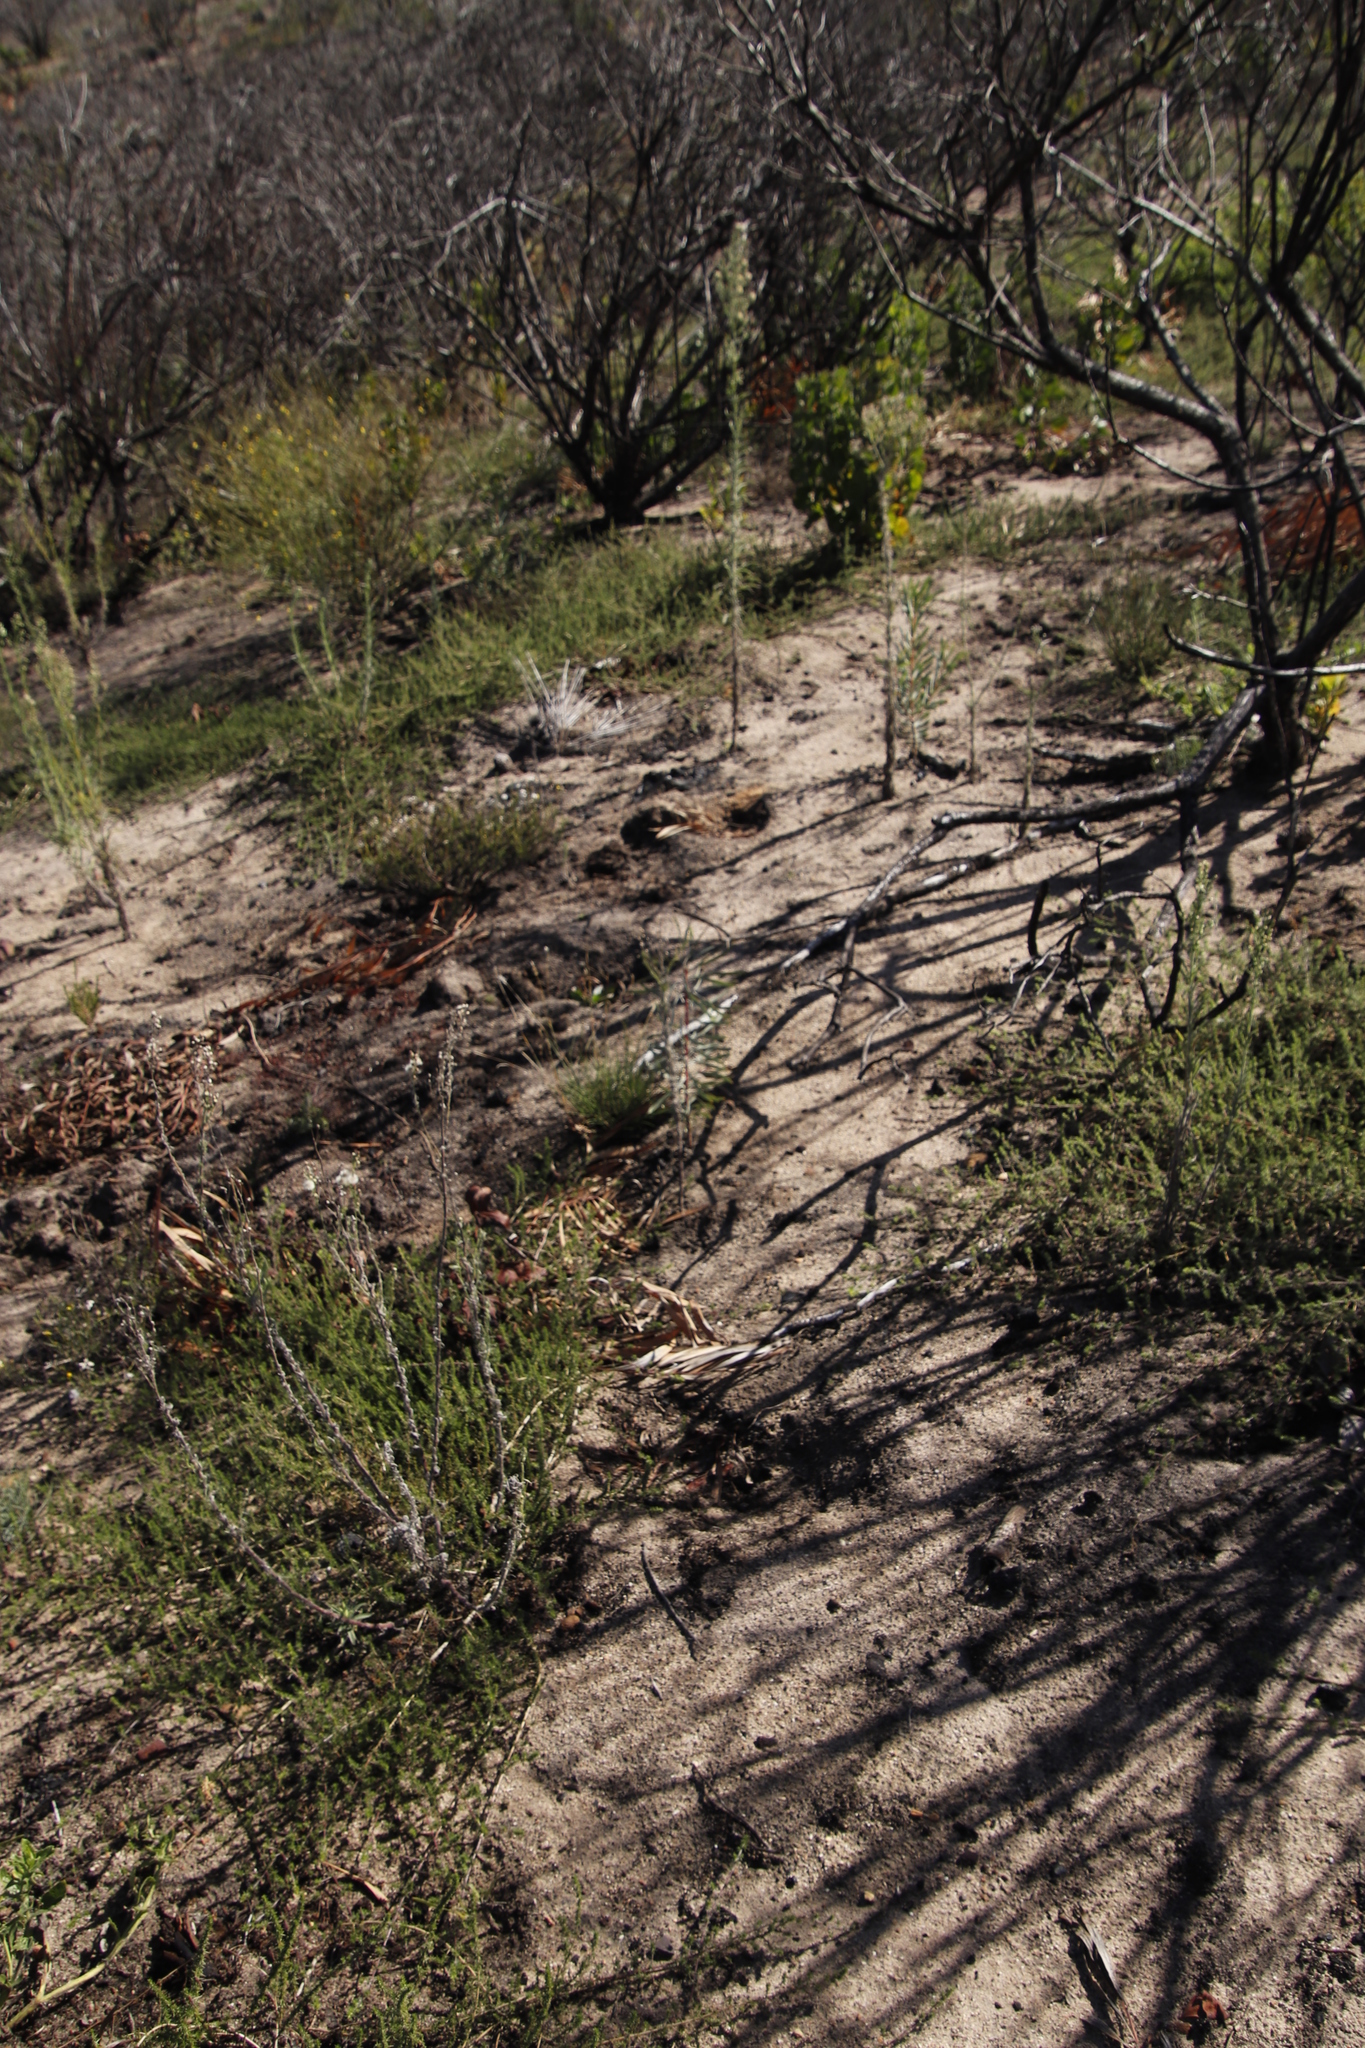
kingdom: Plantae
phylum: Tracheophyta
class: Magnoliopsida
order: Proteales
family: Proteaceae
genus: Protea
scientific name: Protea repens
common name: Sugarbush
